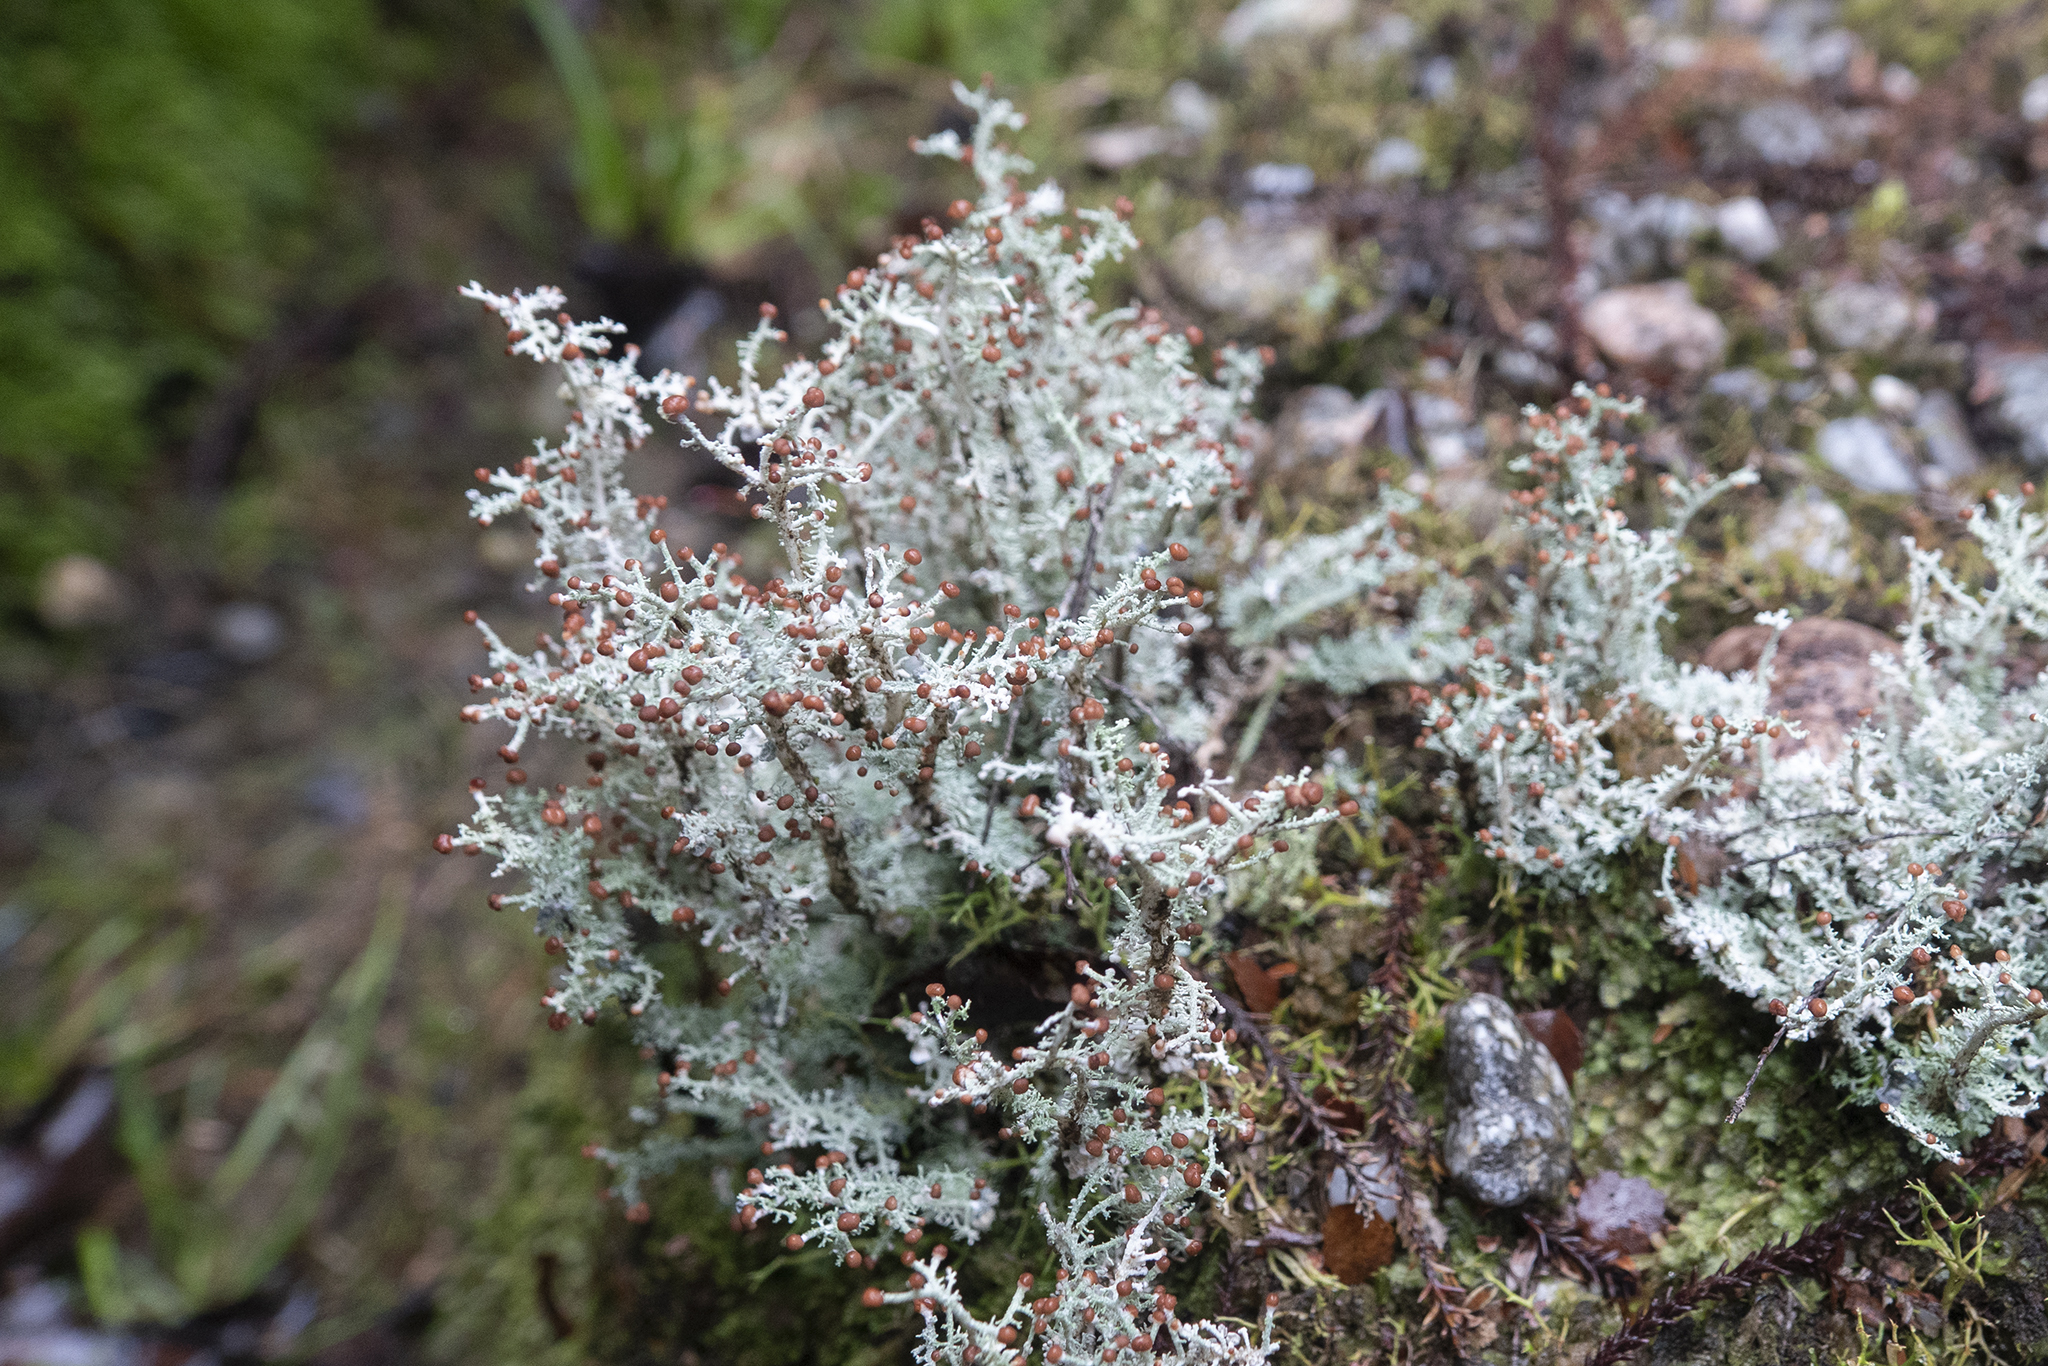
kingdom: Fungi
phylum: Ascomycota
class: Lecanoromycetes
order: Lecanorales
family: Stereocaulaceae
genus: Stereocaulon
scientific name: Stereocaulon ramulosum
